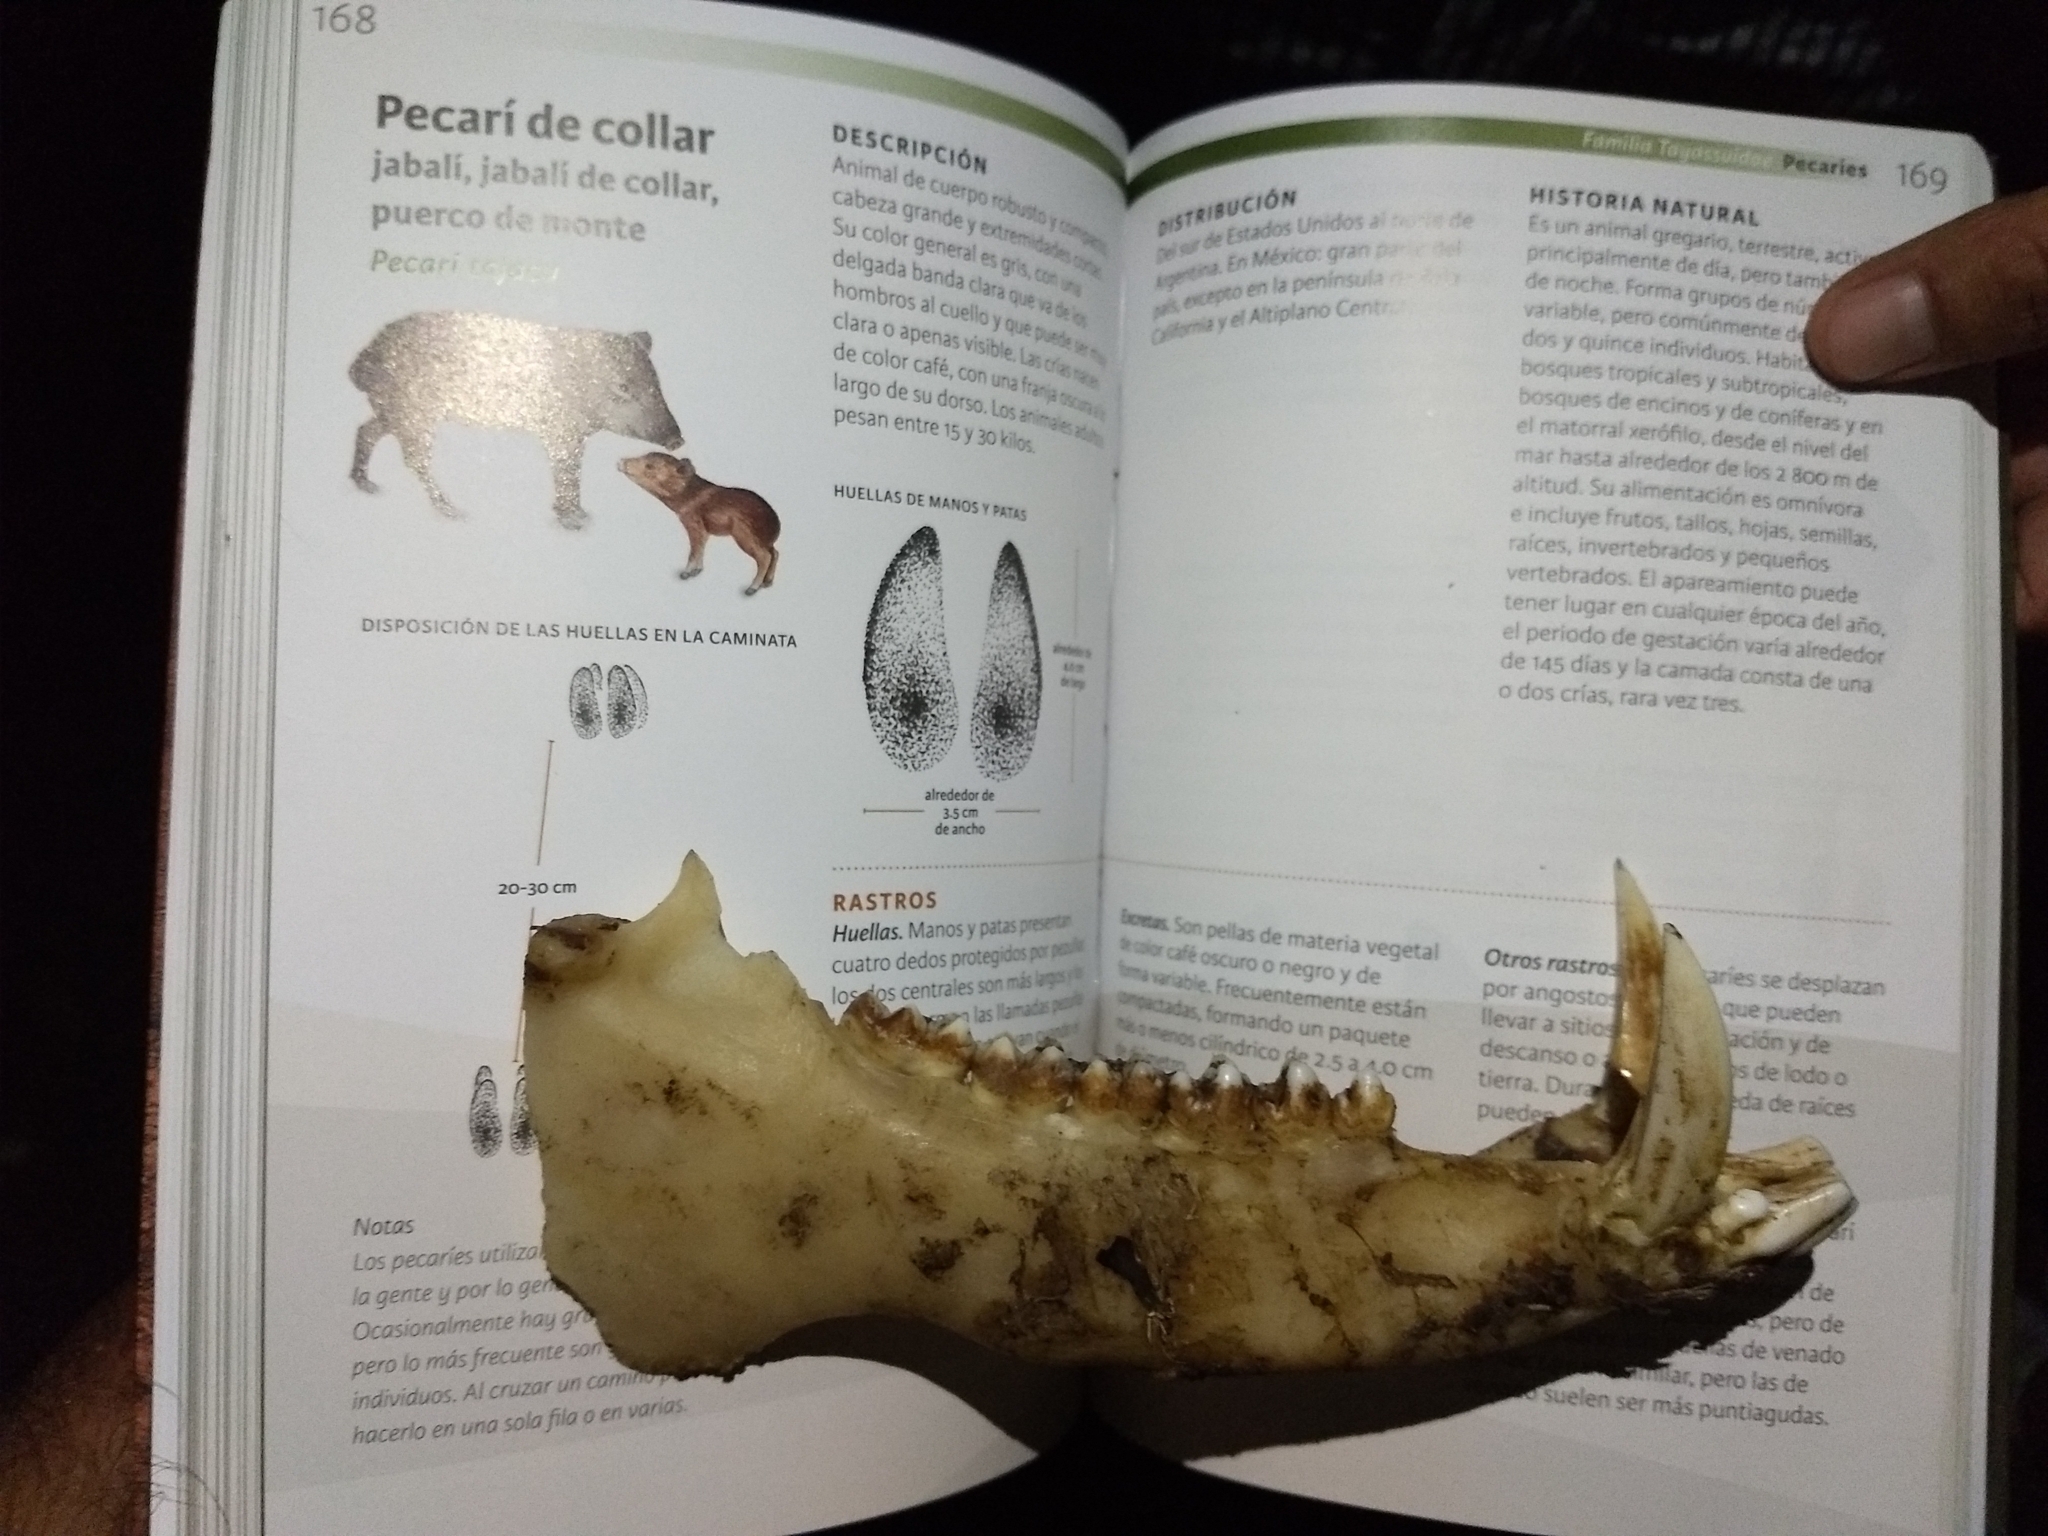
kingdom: Animalia
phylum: Chordata
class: Mammalia
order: Artiodactyla
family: Tayassuidae
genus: Pecari
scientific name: Pecari tajacu
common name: Collared peccary
